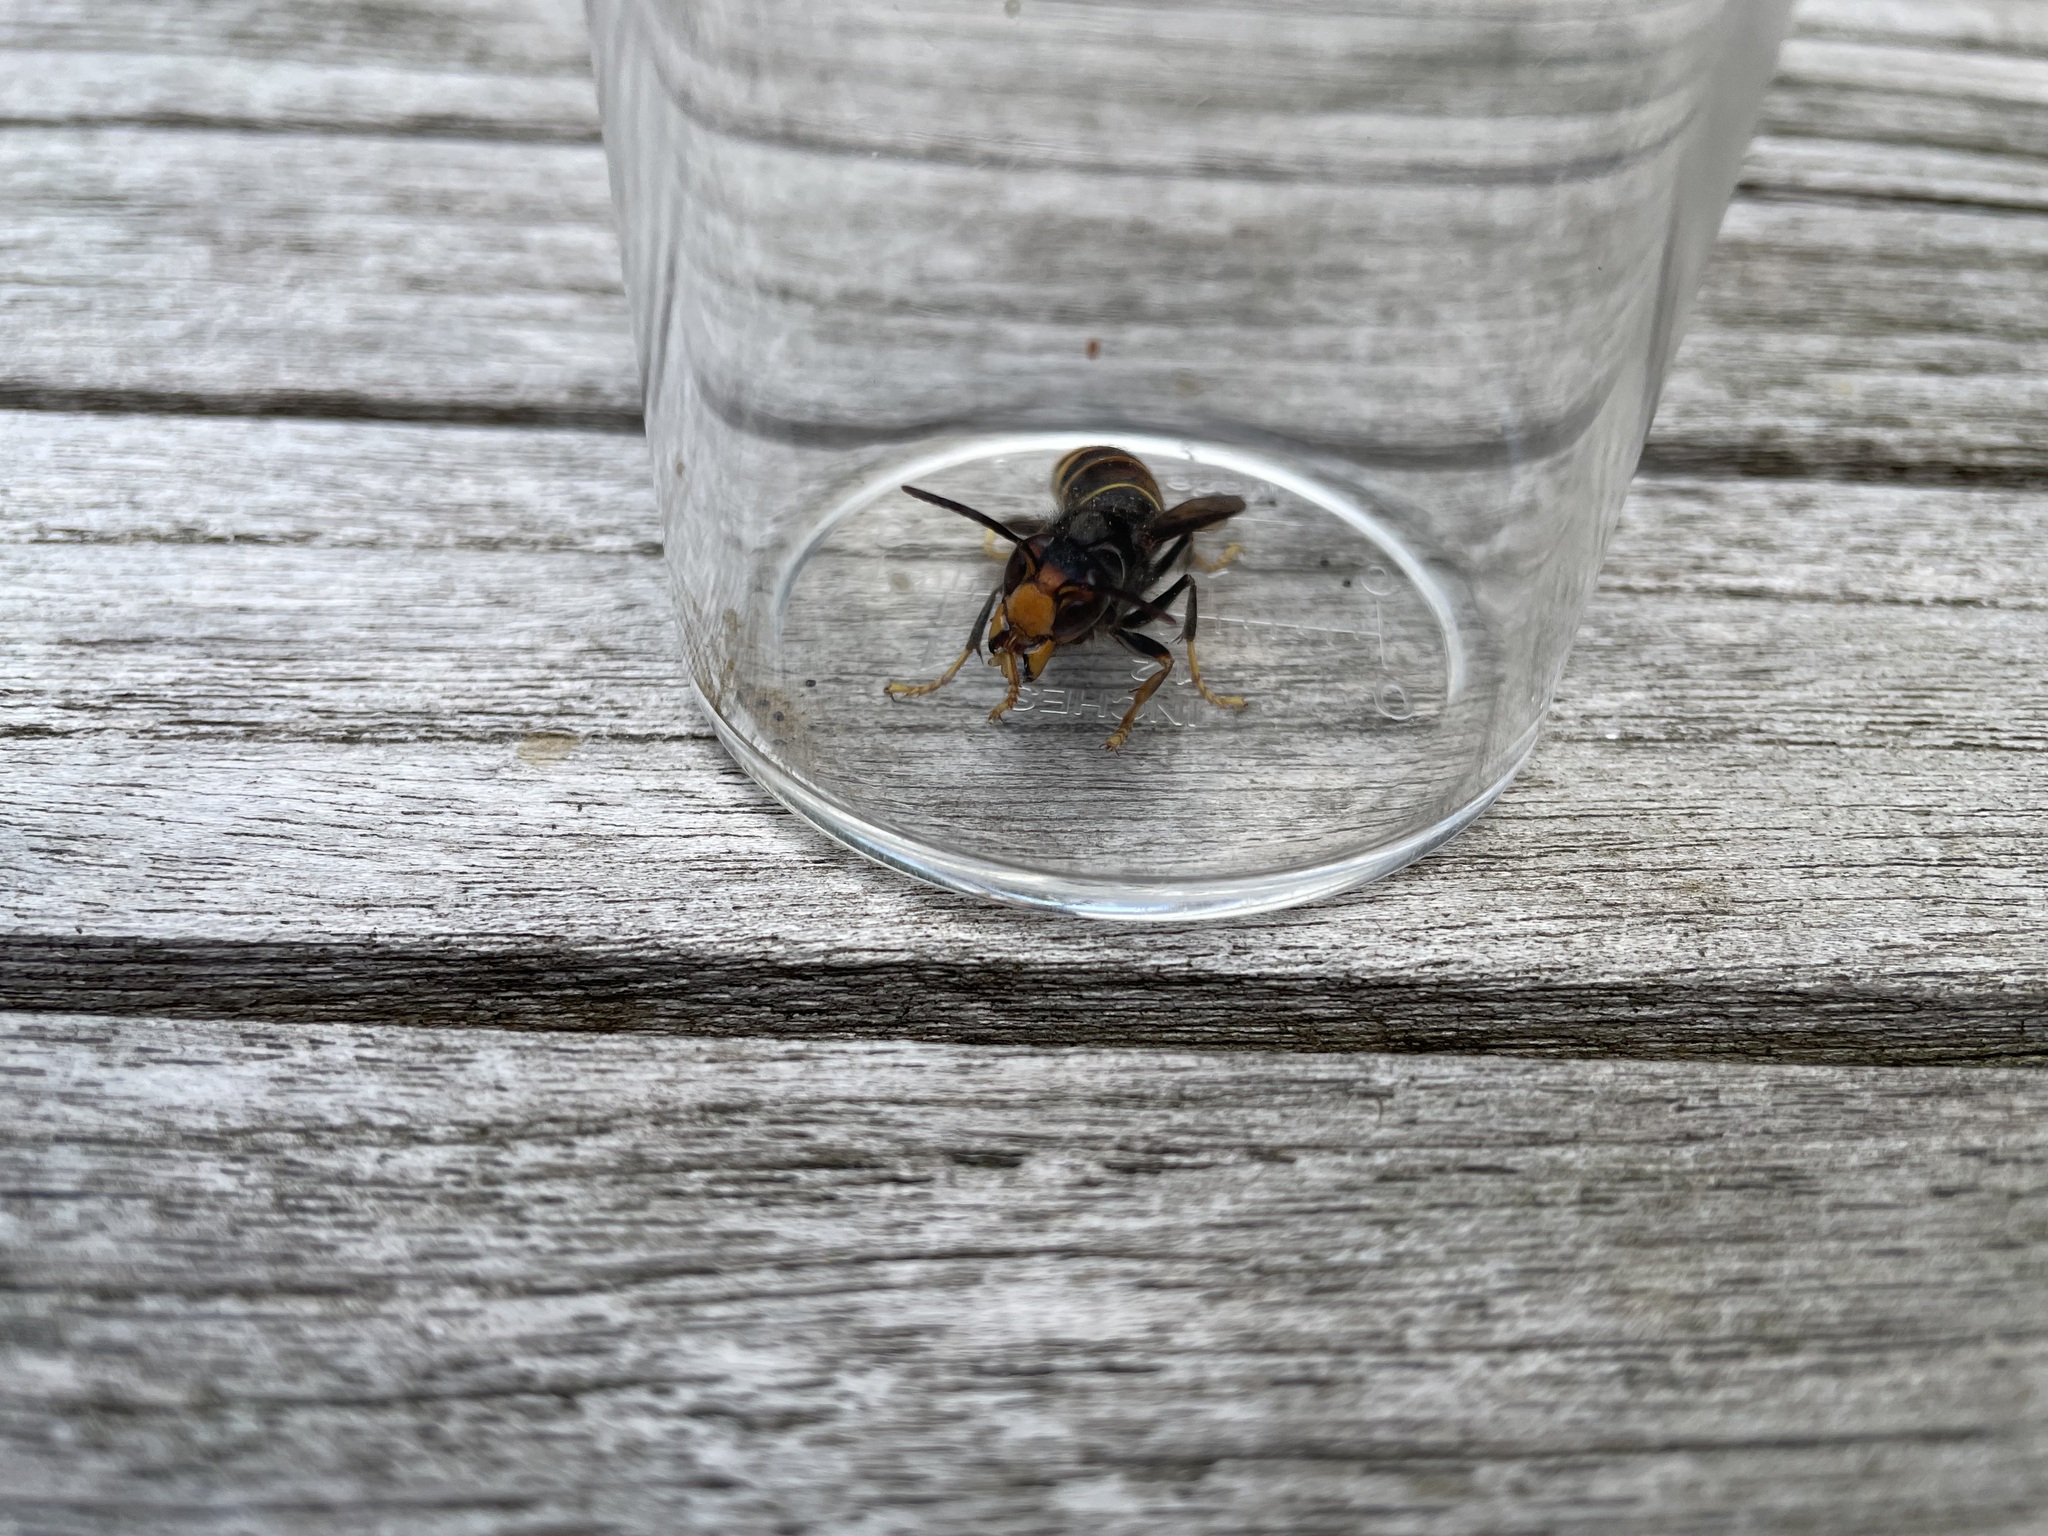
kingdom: Animalia
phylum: Arthropoda
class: Insecta
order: Hymenoptera
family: Vespidae
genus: Vespa
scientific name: Vespa velutina
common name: Asian hornet
